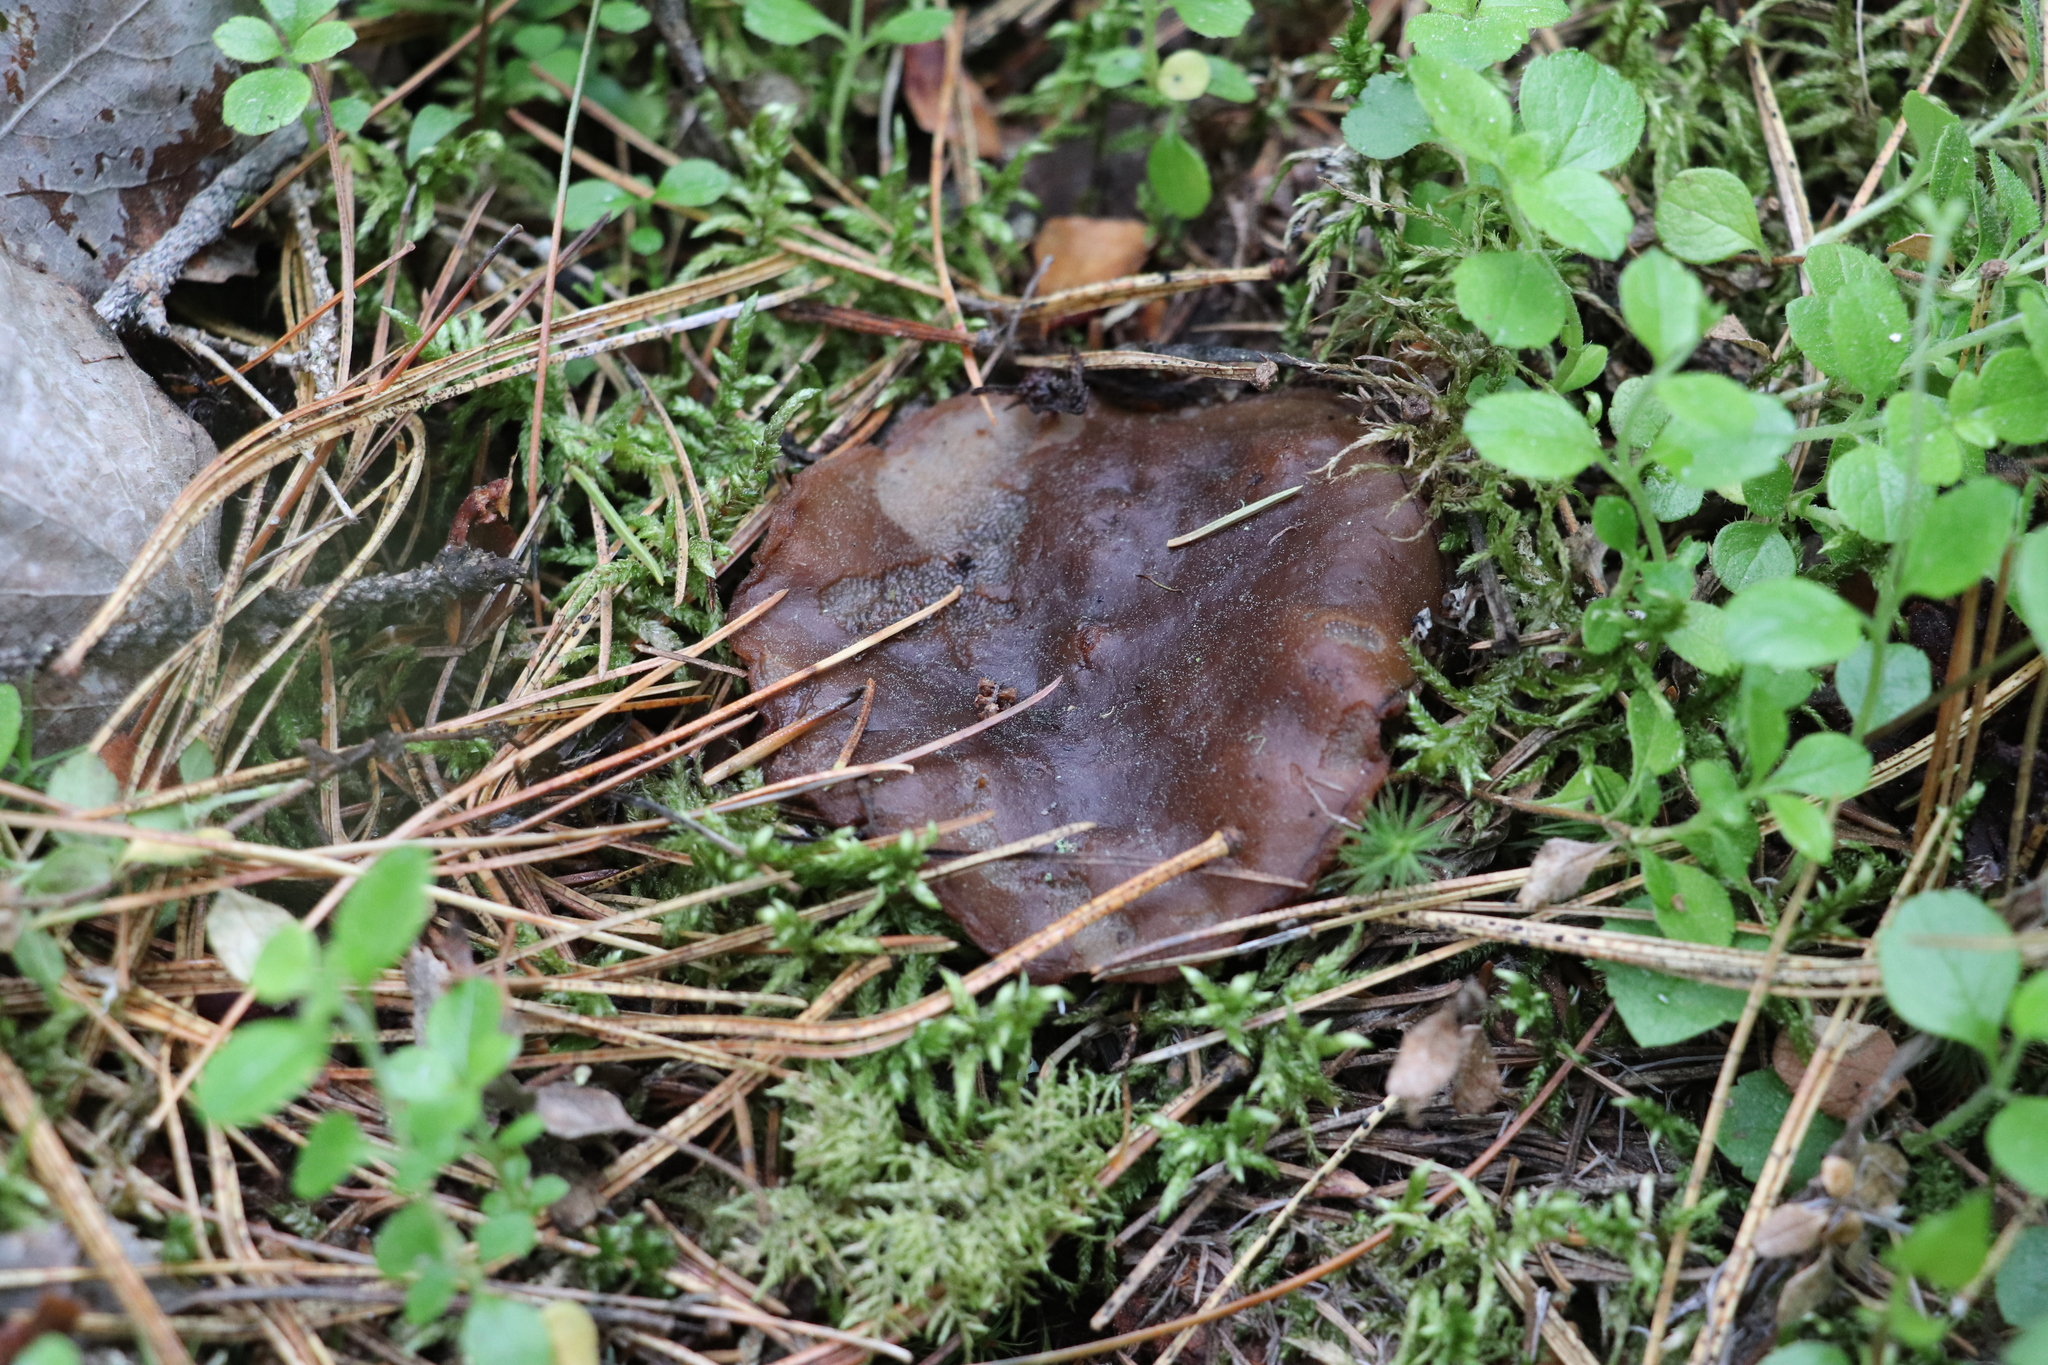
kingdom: Fungi
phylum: Ascomycota
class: Pezizomycetes
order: Pezizales
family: Sarcosomataceae
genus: Sarcosoma
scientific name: Sarcosoma globosum
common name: Charred-pancake cup
